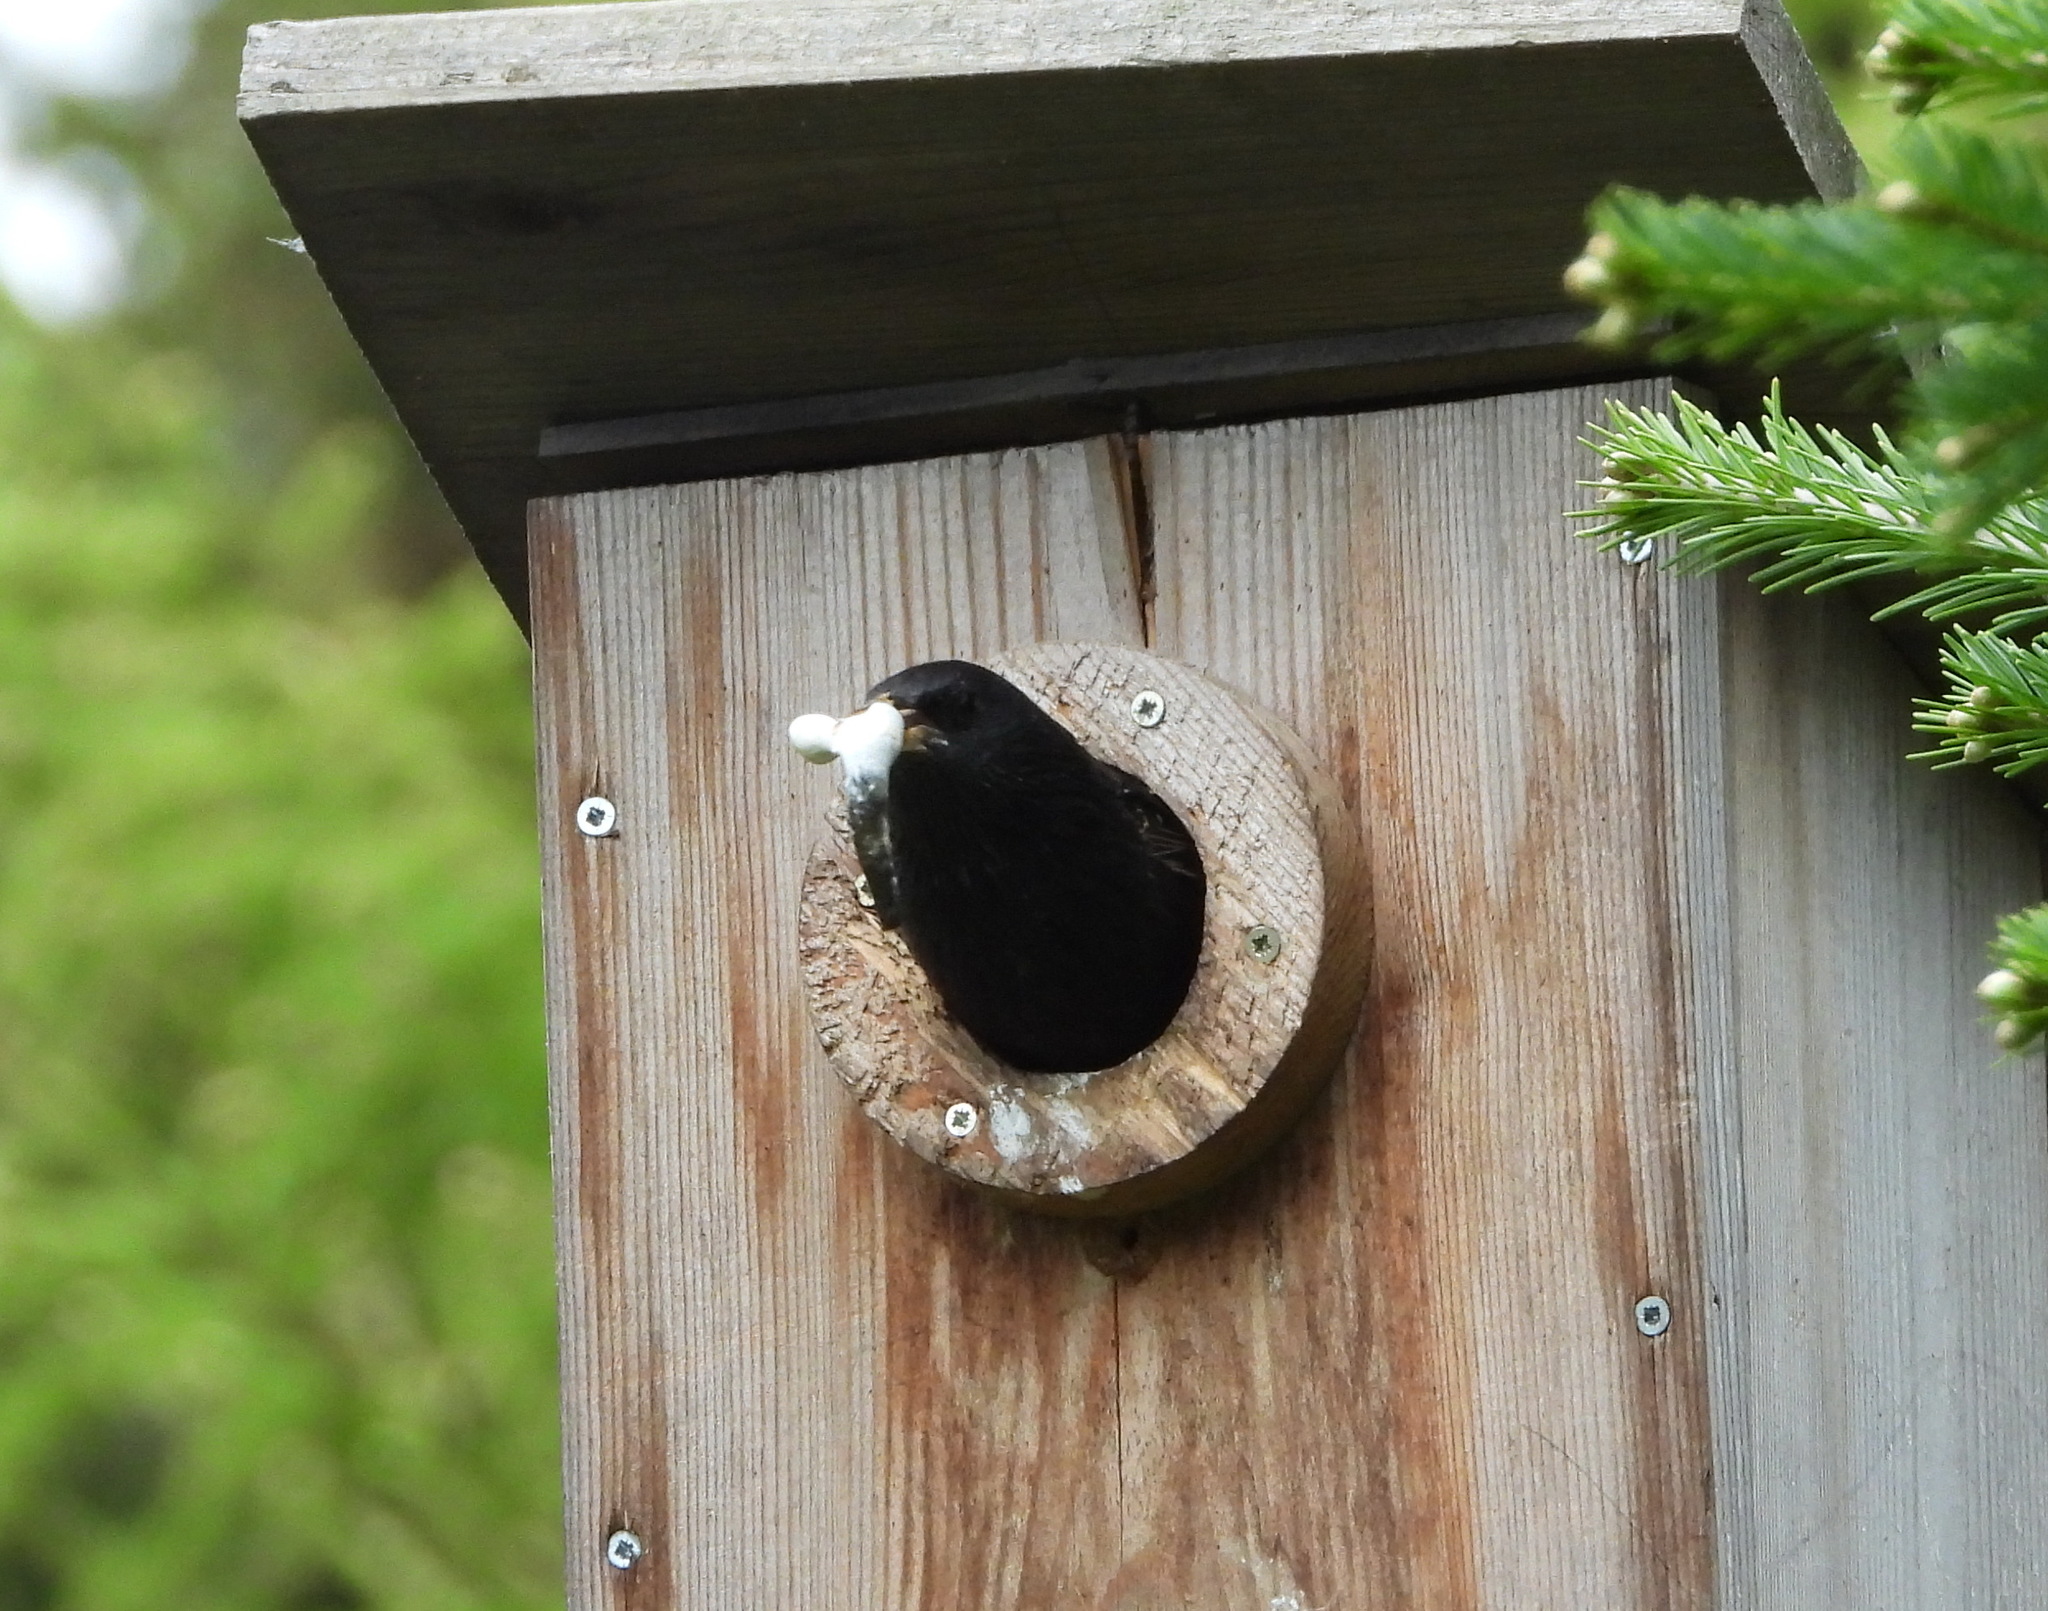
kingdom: Animalia
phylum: Chordata
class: Aves
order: Passeriformes
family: Sturnidae
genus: Sturnus
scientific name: Sturnus vulgaris
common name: Common starling
